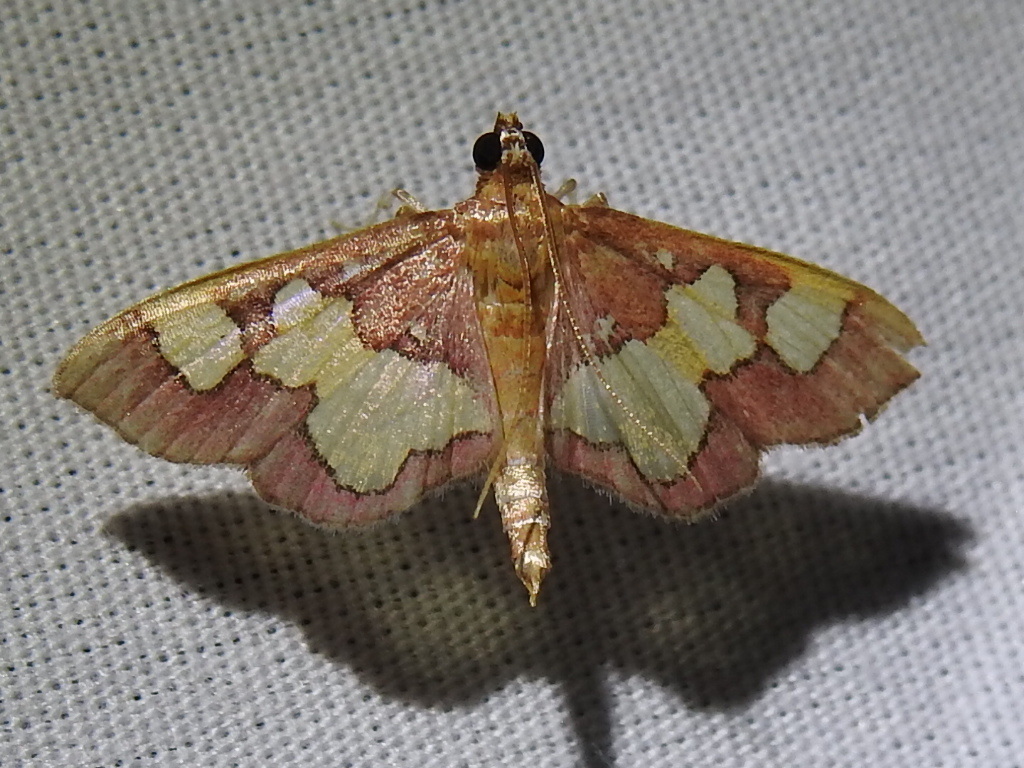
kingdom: Animalia
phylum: Arthropoda
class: Insecta
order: Lepidoptera
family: Crambidae
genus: Colomychus
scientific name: Colomychus talis
